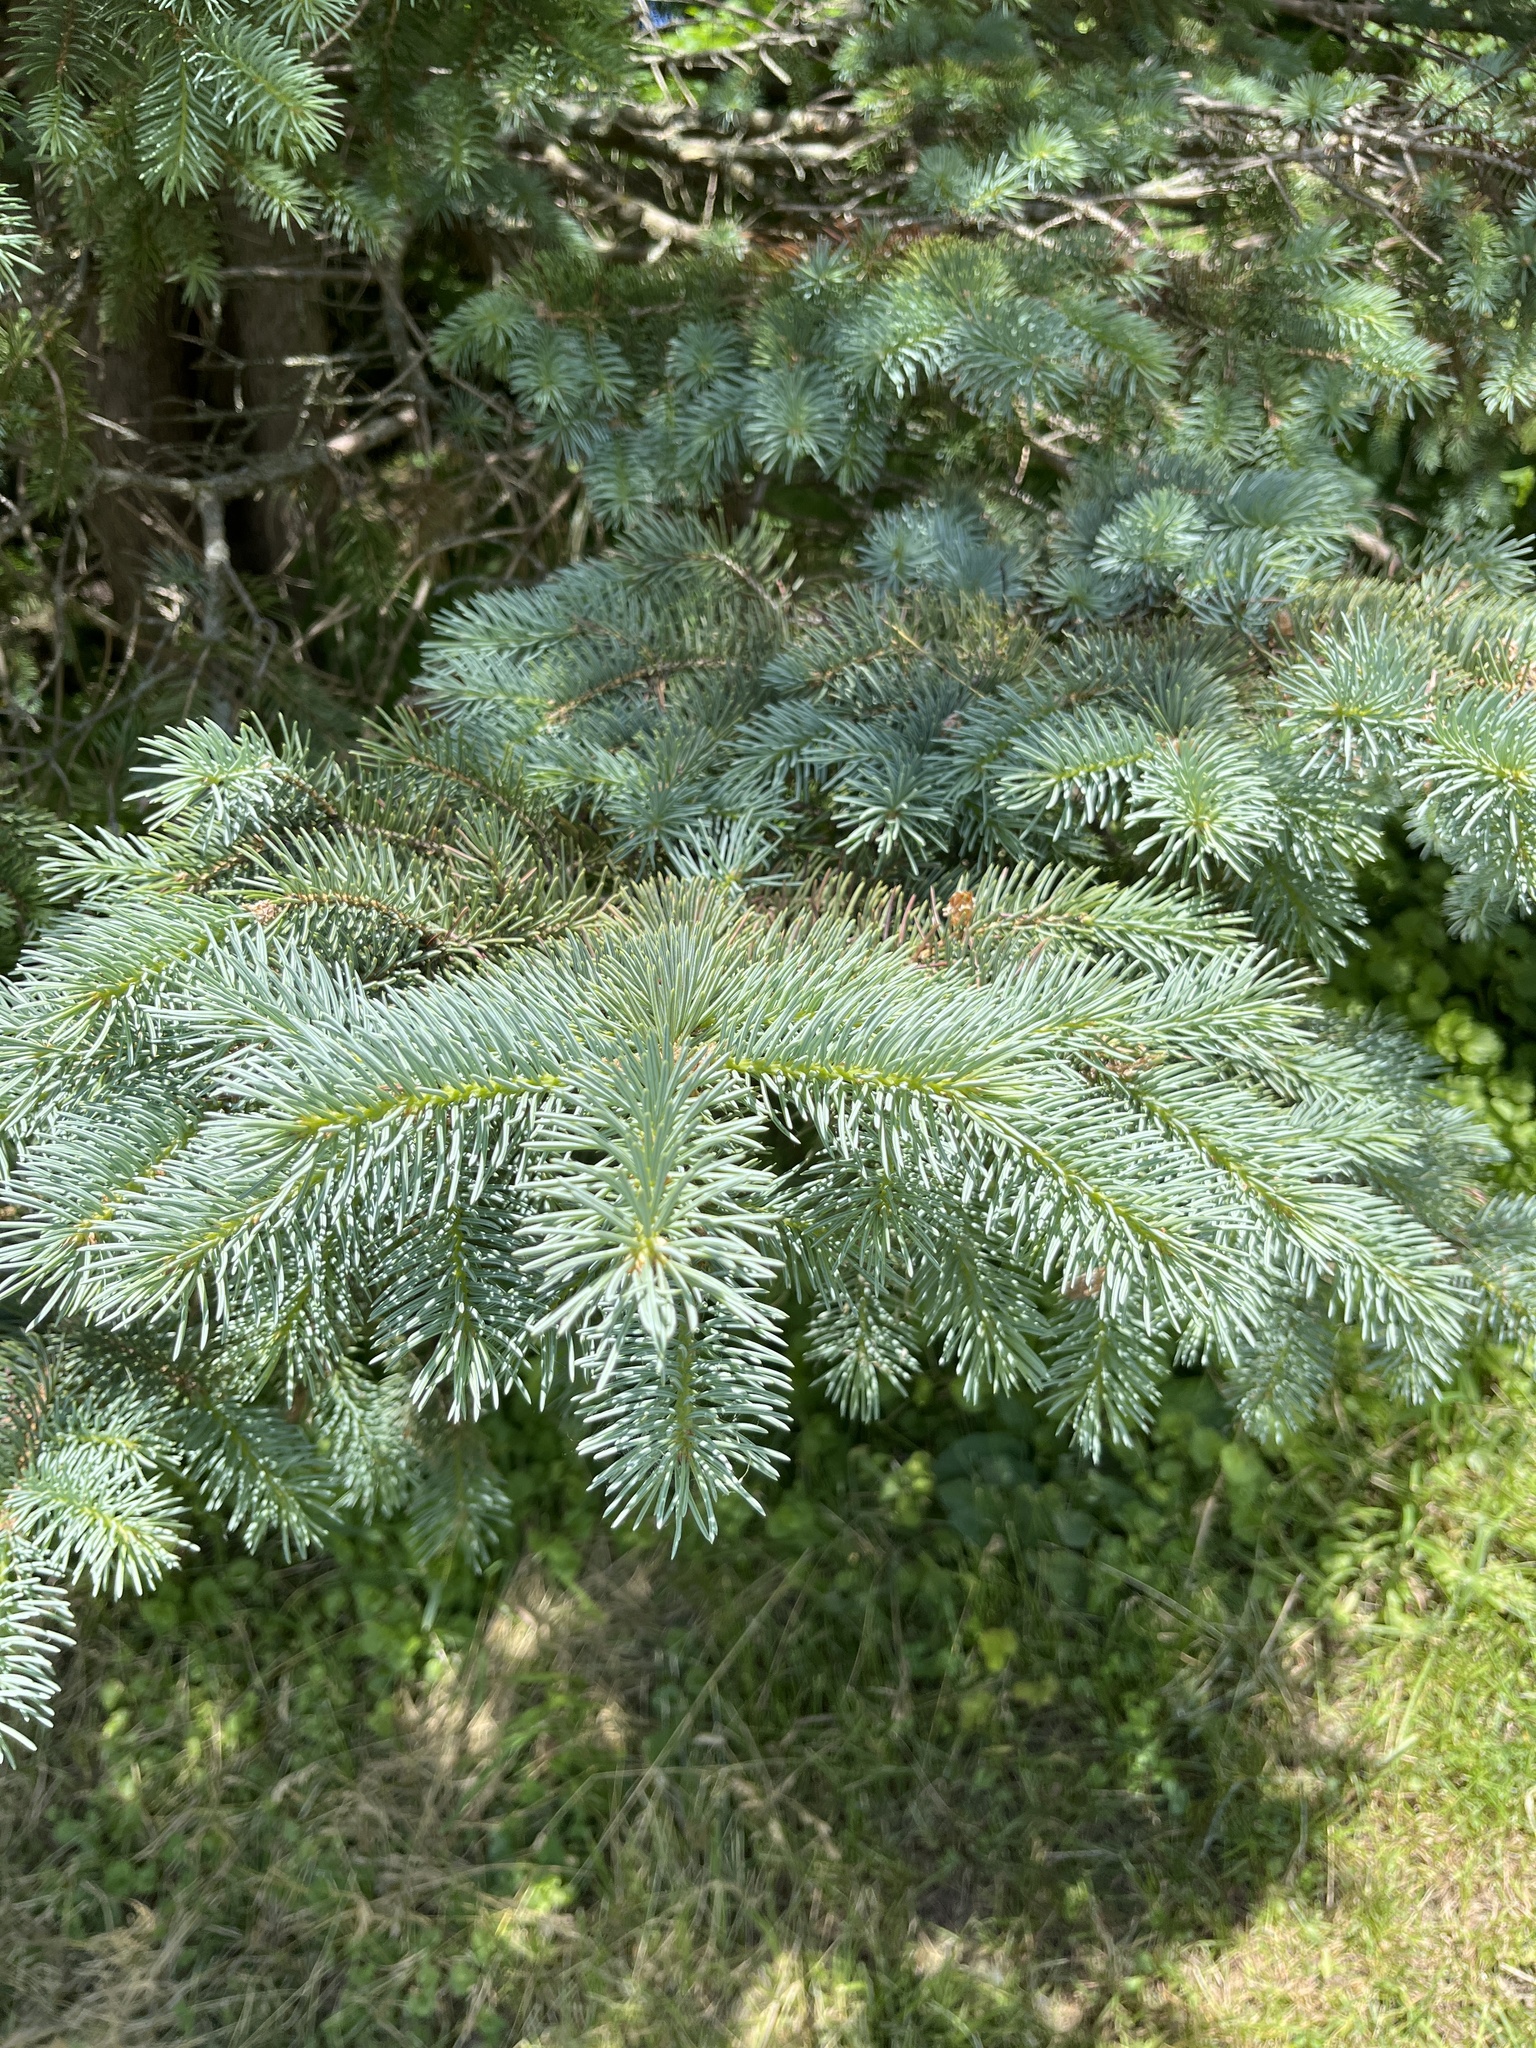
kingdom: Plantae
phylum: Tracheophyta
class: Pinopsida
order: Pinales
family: Pinaceae
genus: Picea
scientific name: Picea glauca
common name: White spruce
